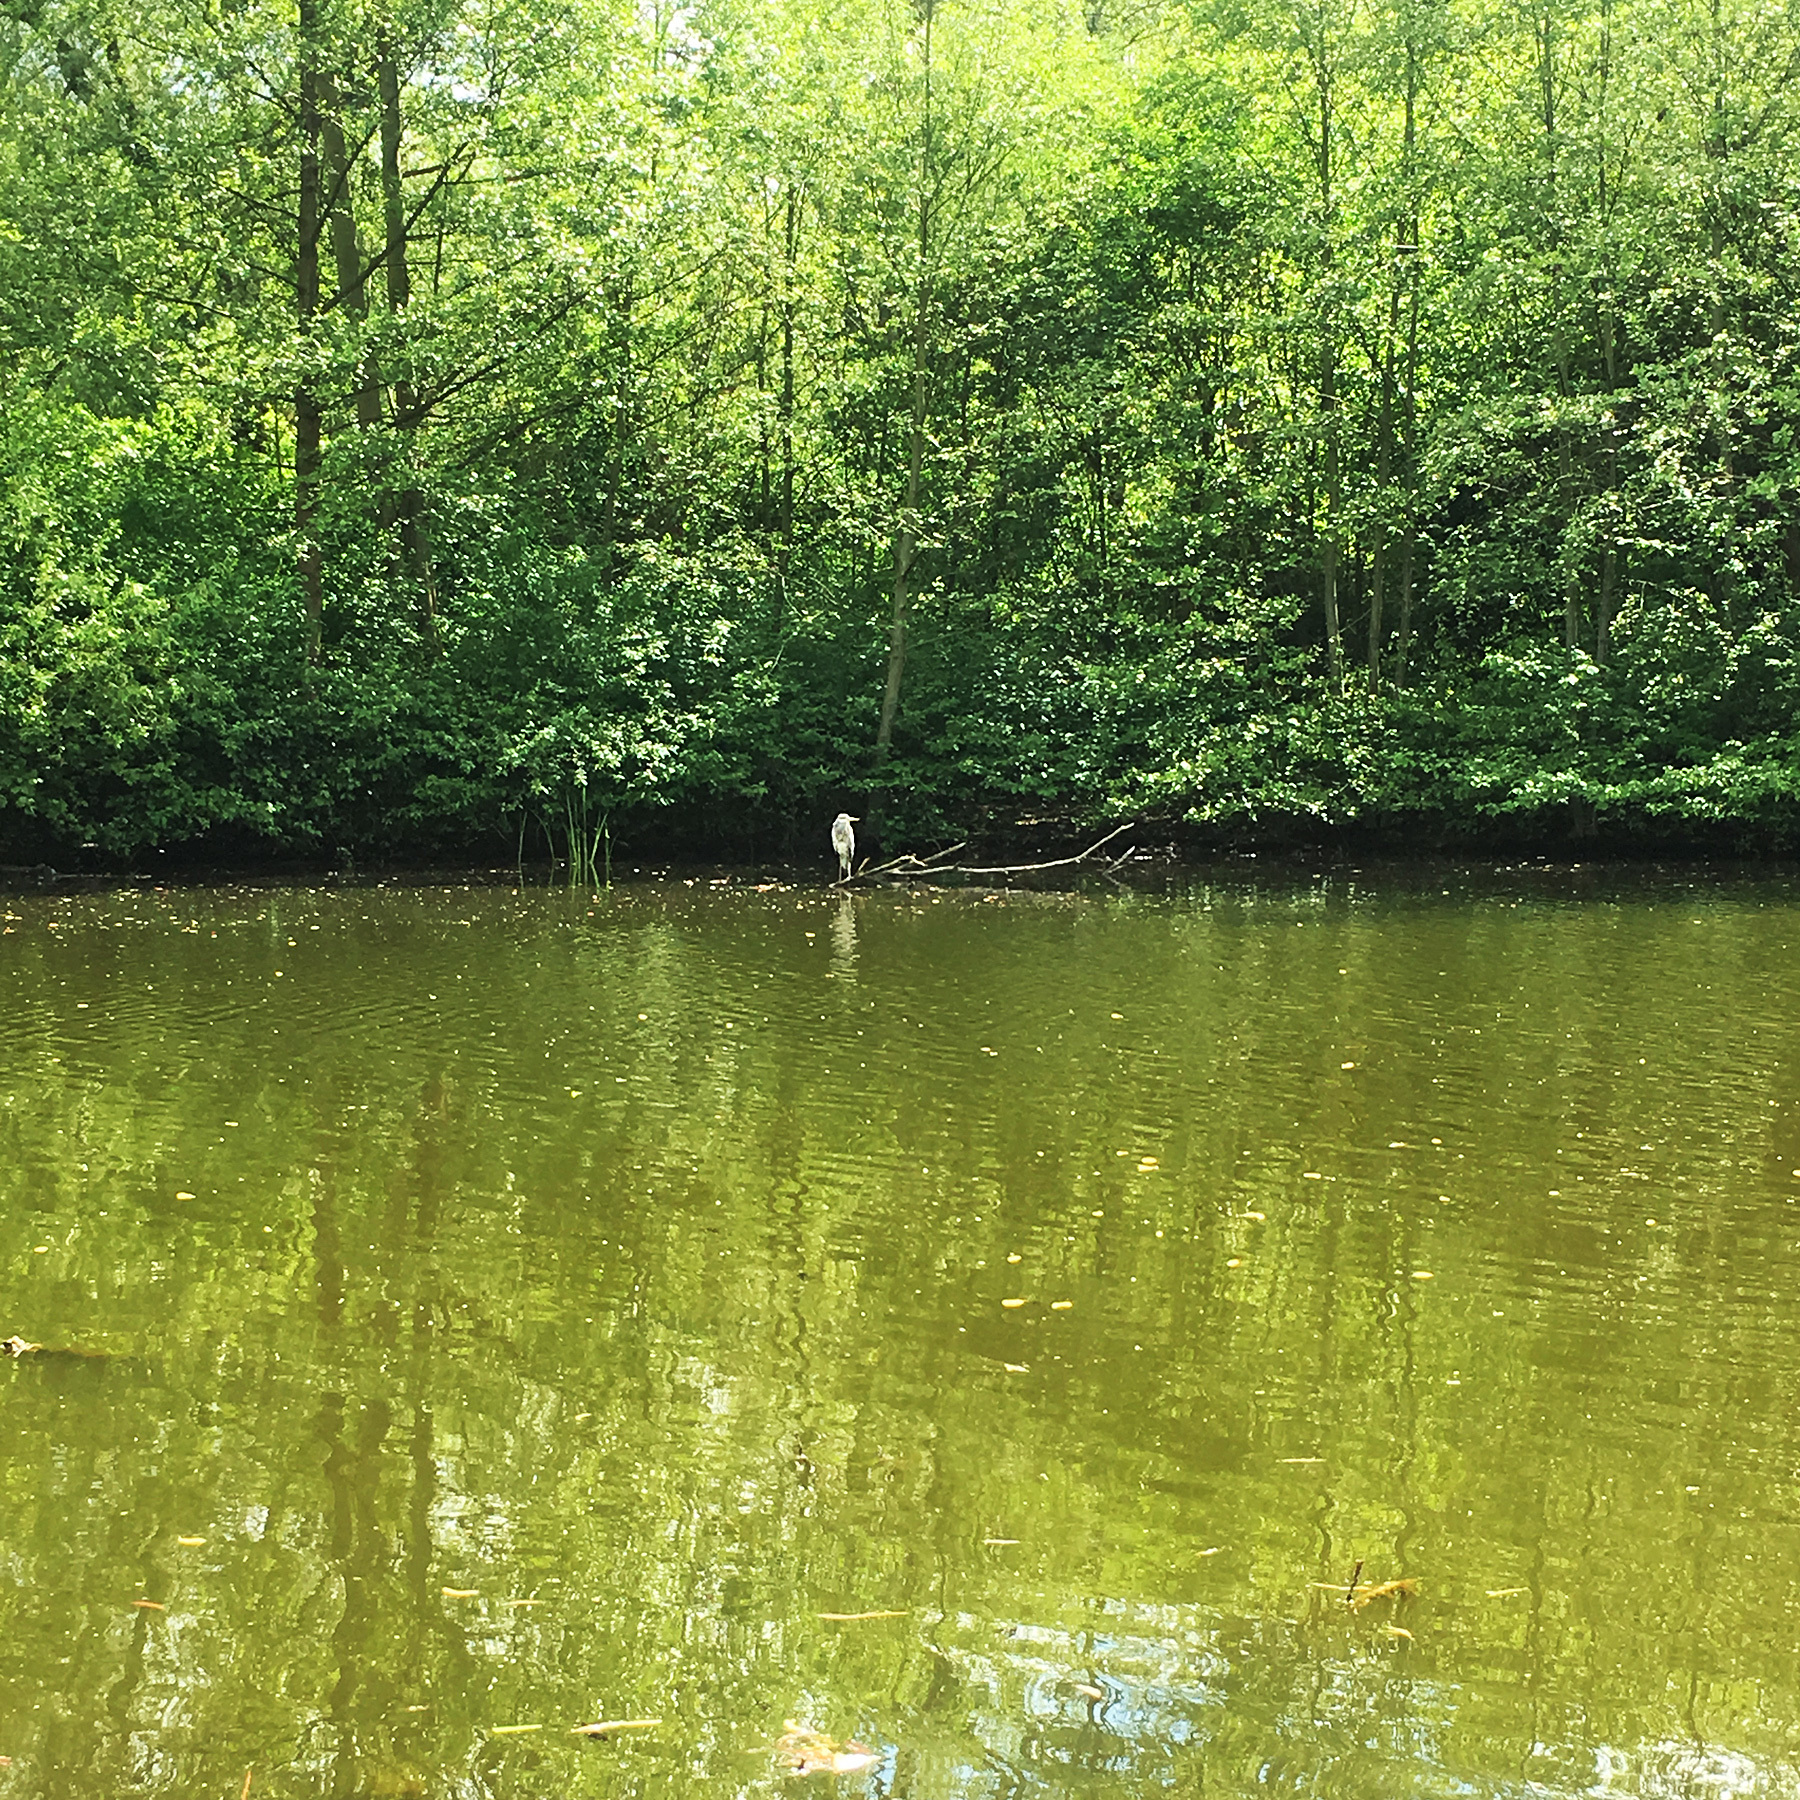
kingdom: Animalia
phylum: Chordata
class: Aves
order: Pelecaniformes
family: Ardeidae
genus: Ardea
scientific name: Ardea cinerea
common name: Grey heron
